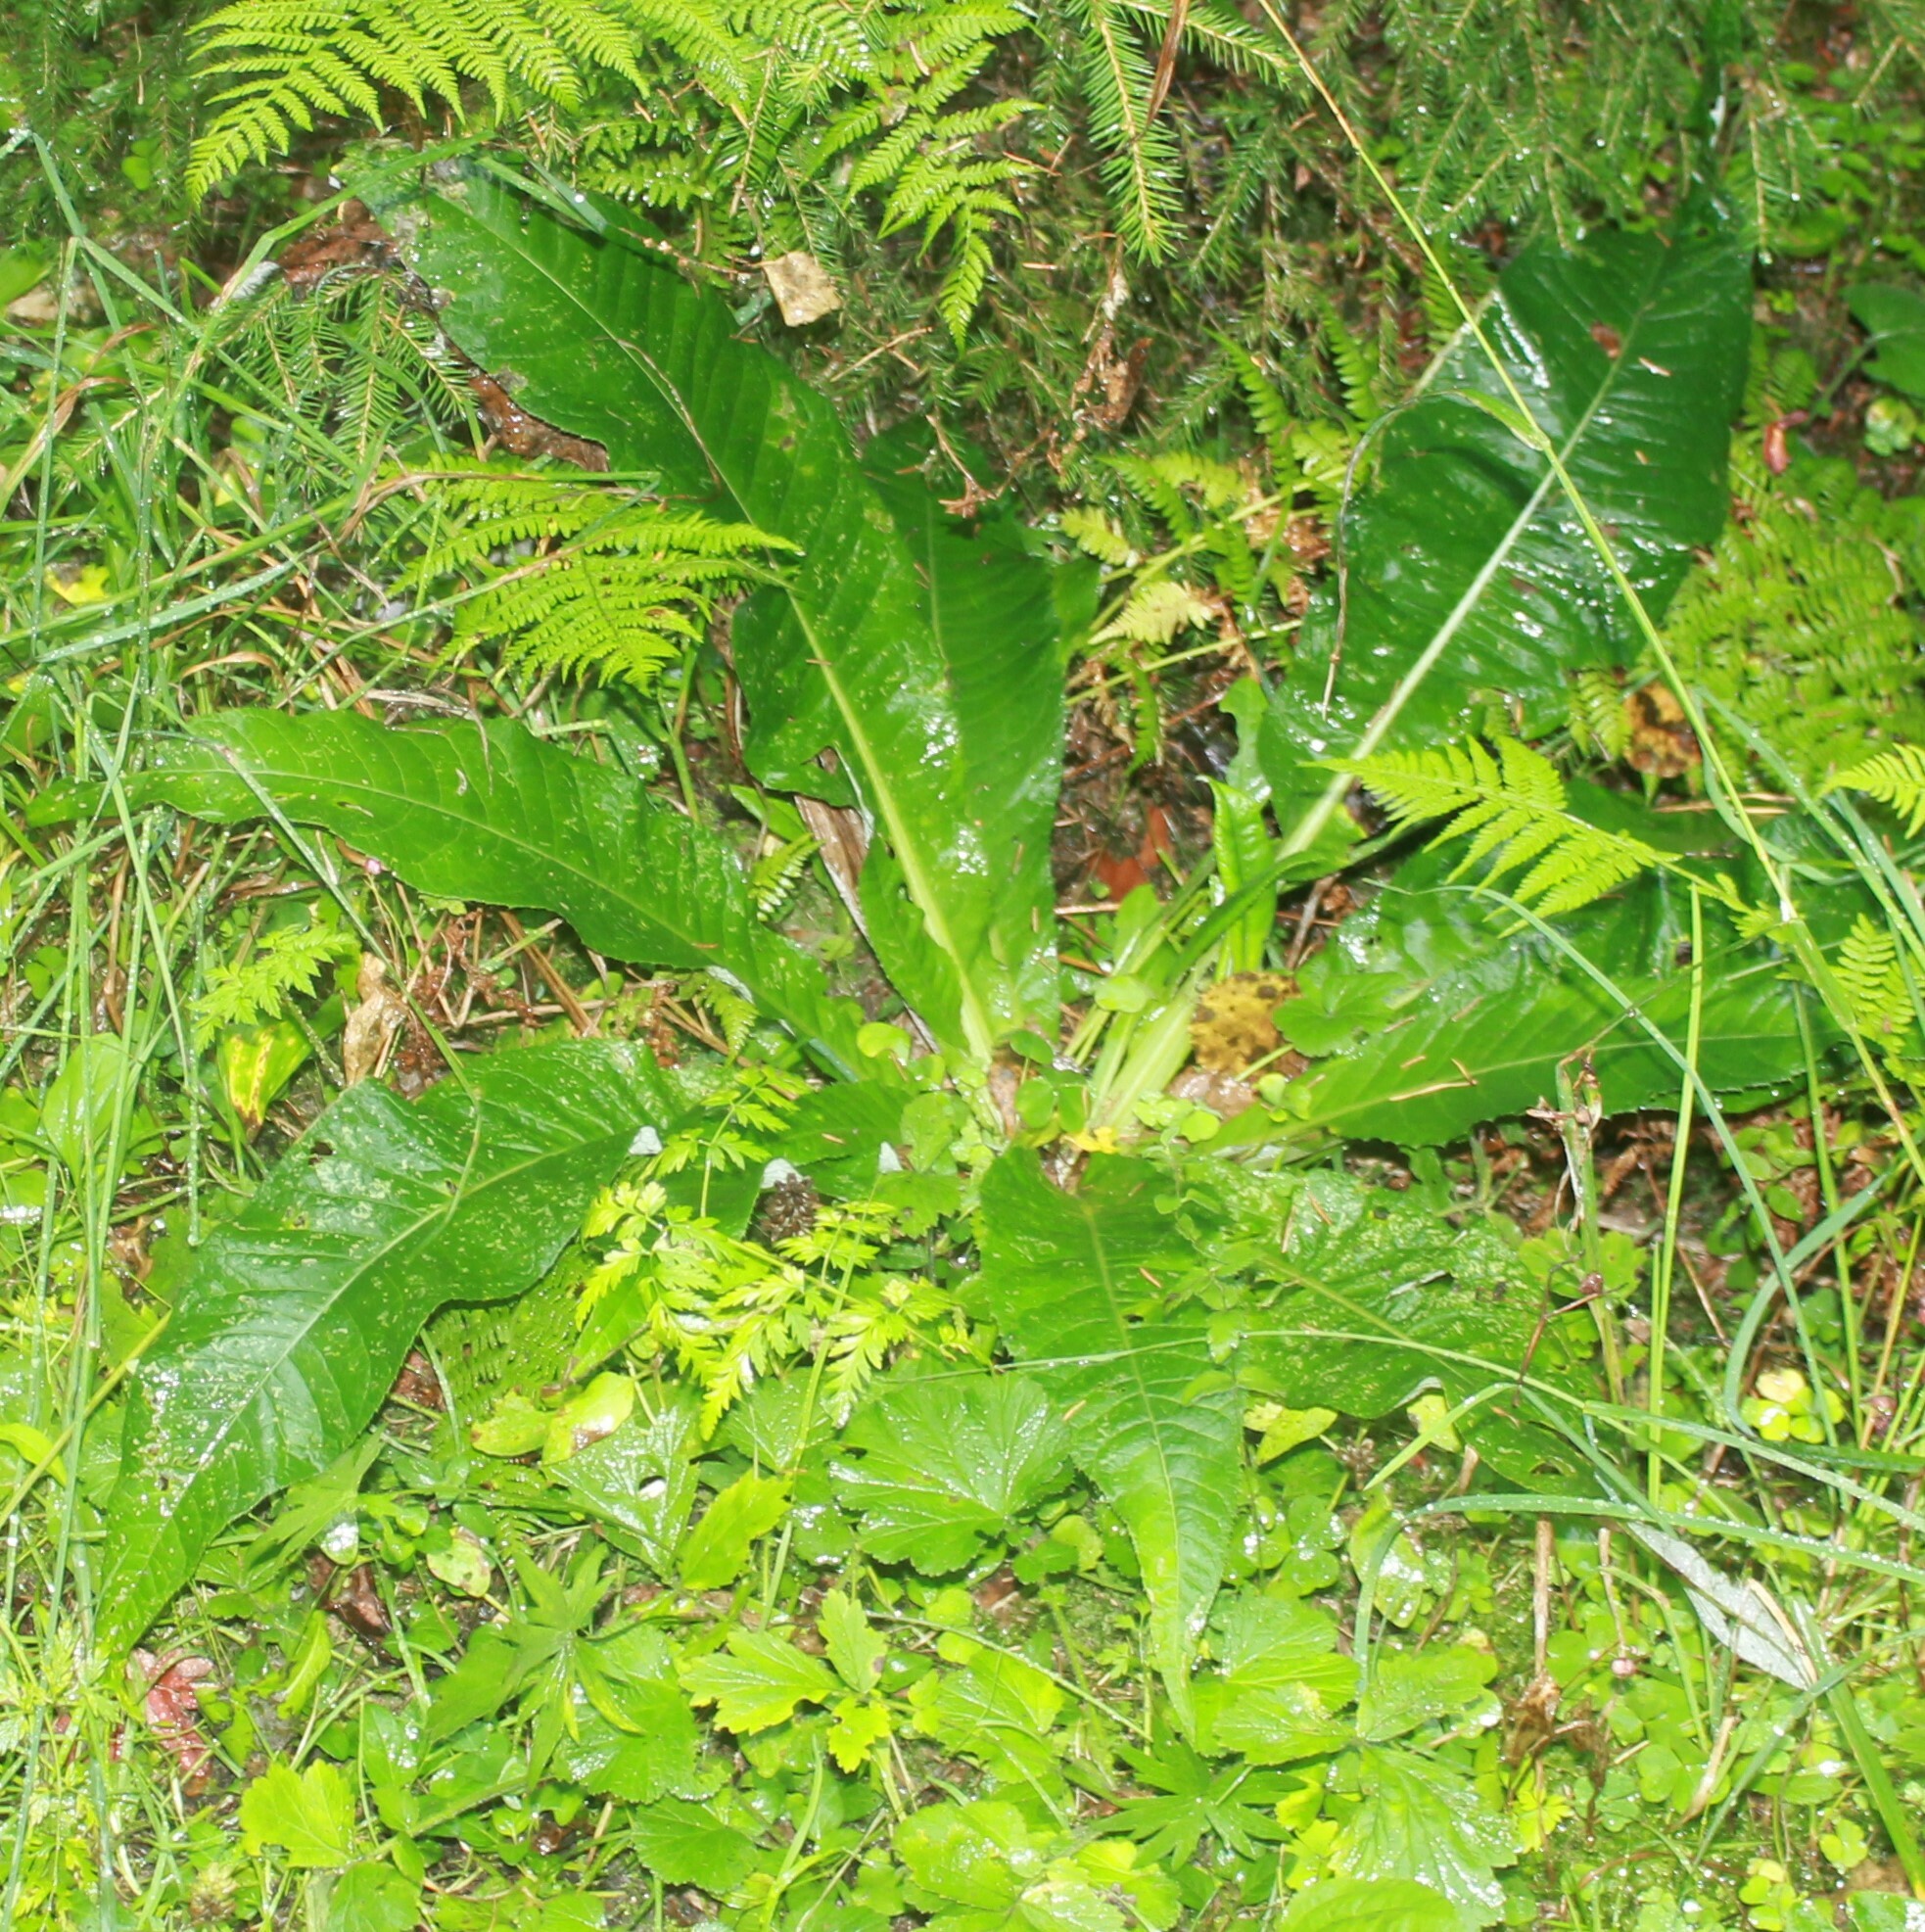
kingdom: Plantae
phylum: Tracheophyta
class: Magnoliopsida
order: Asterales
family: Asteraceae
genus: Cirsium
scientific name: Cirsium heterophyllum
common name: Melancholy thistle
